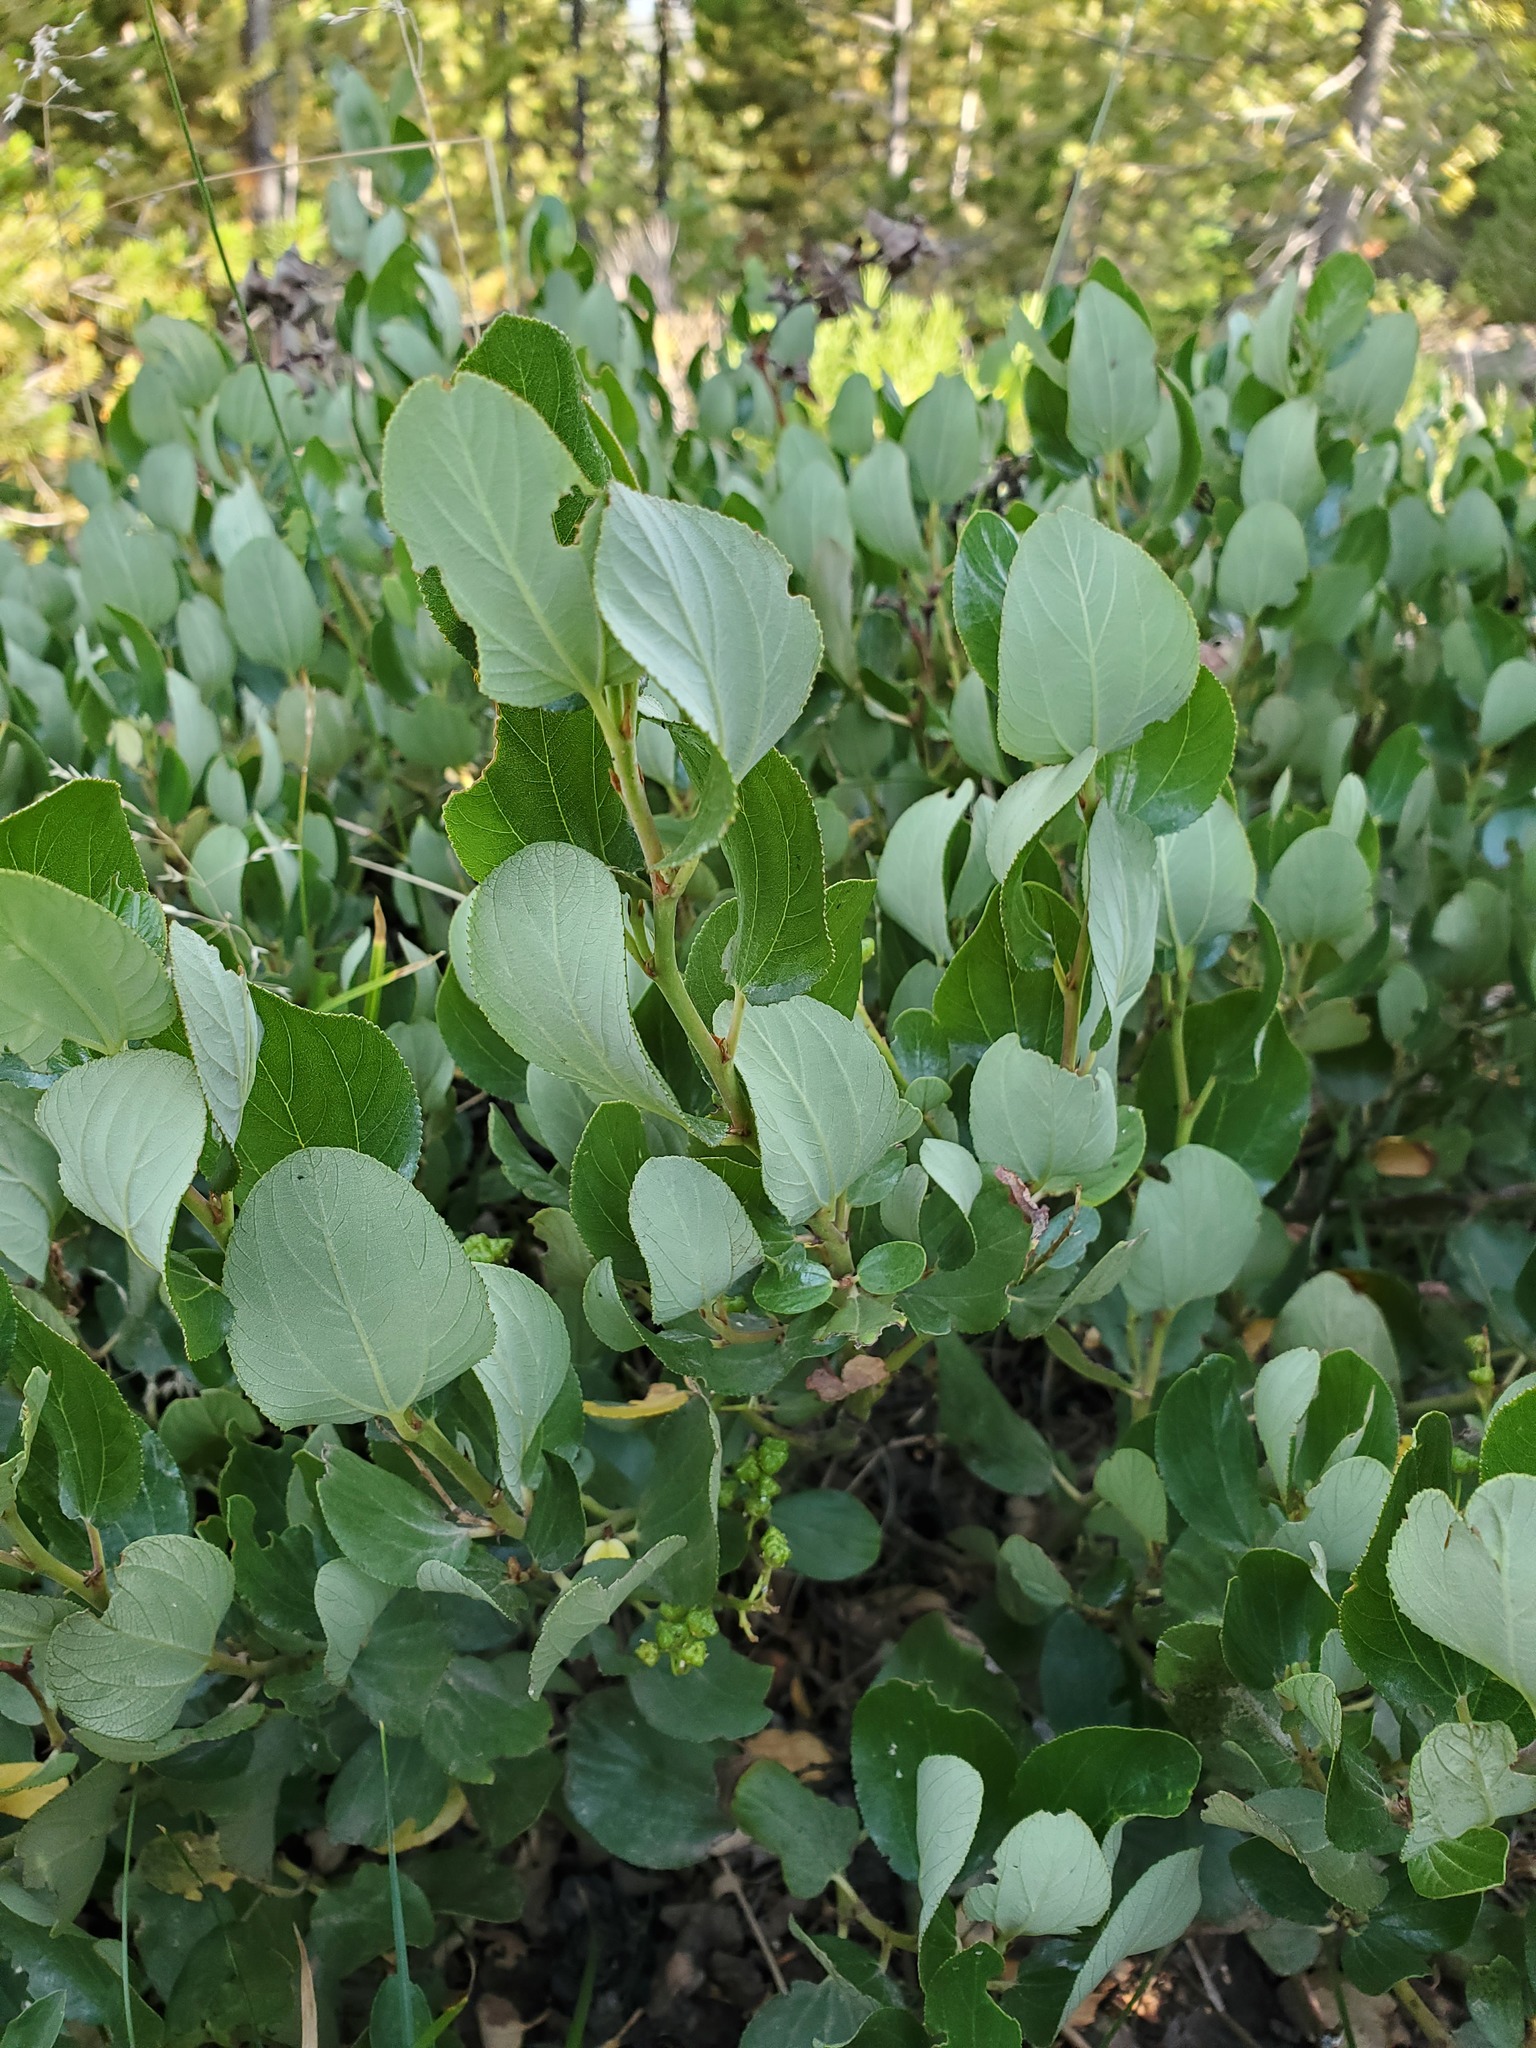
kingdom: Plantae
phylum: Tracheophyta
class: Magnoliopsida
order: Rosales
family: Rhamnaceae
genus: Ceanothus
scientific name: Ceanothus velutinus
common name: Snowbrush
